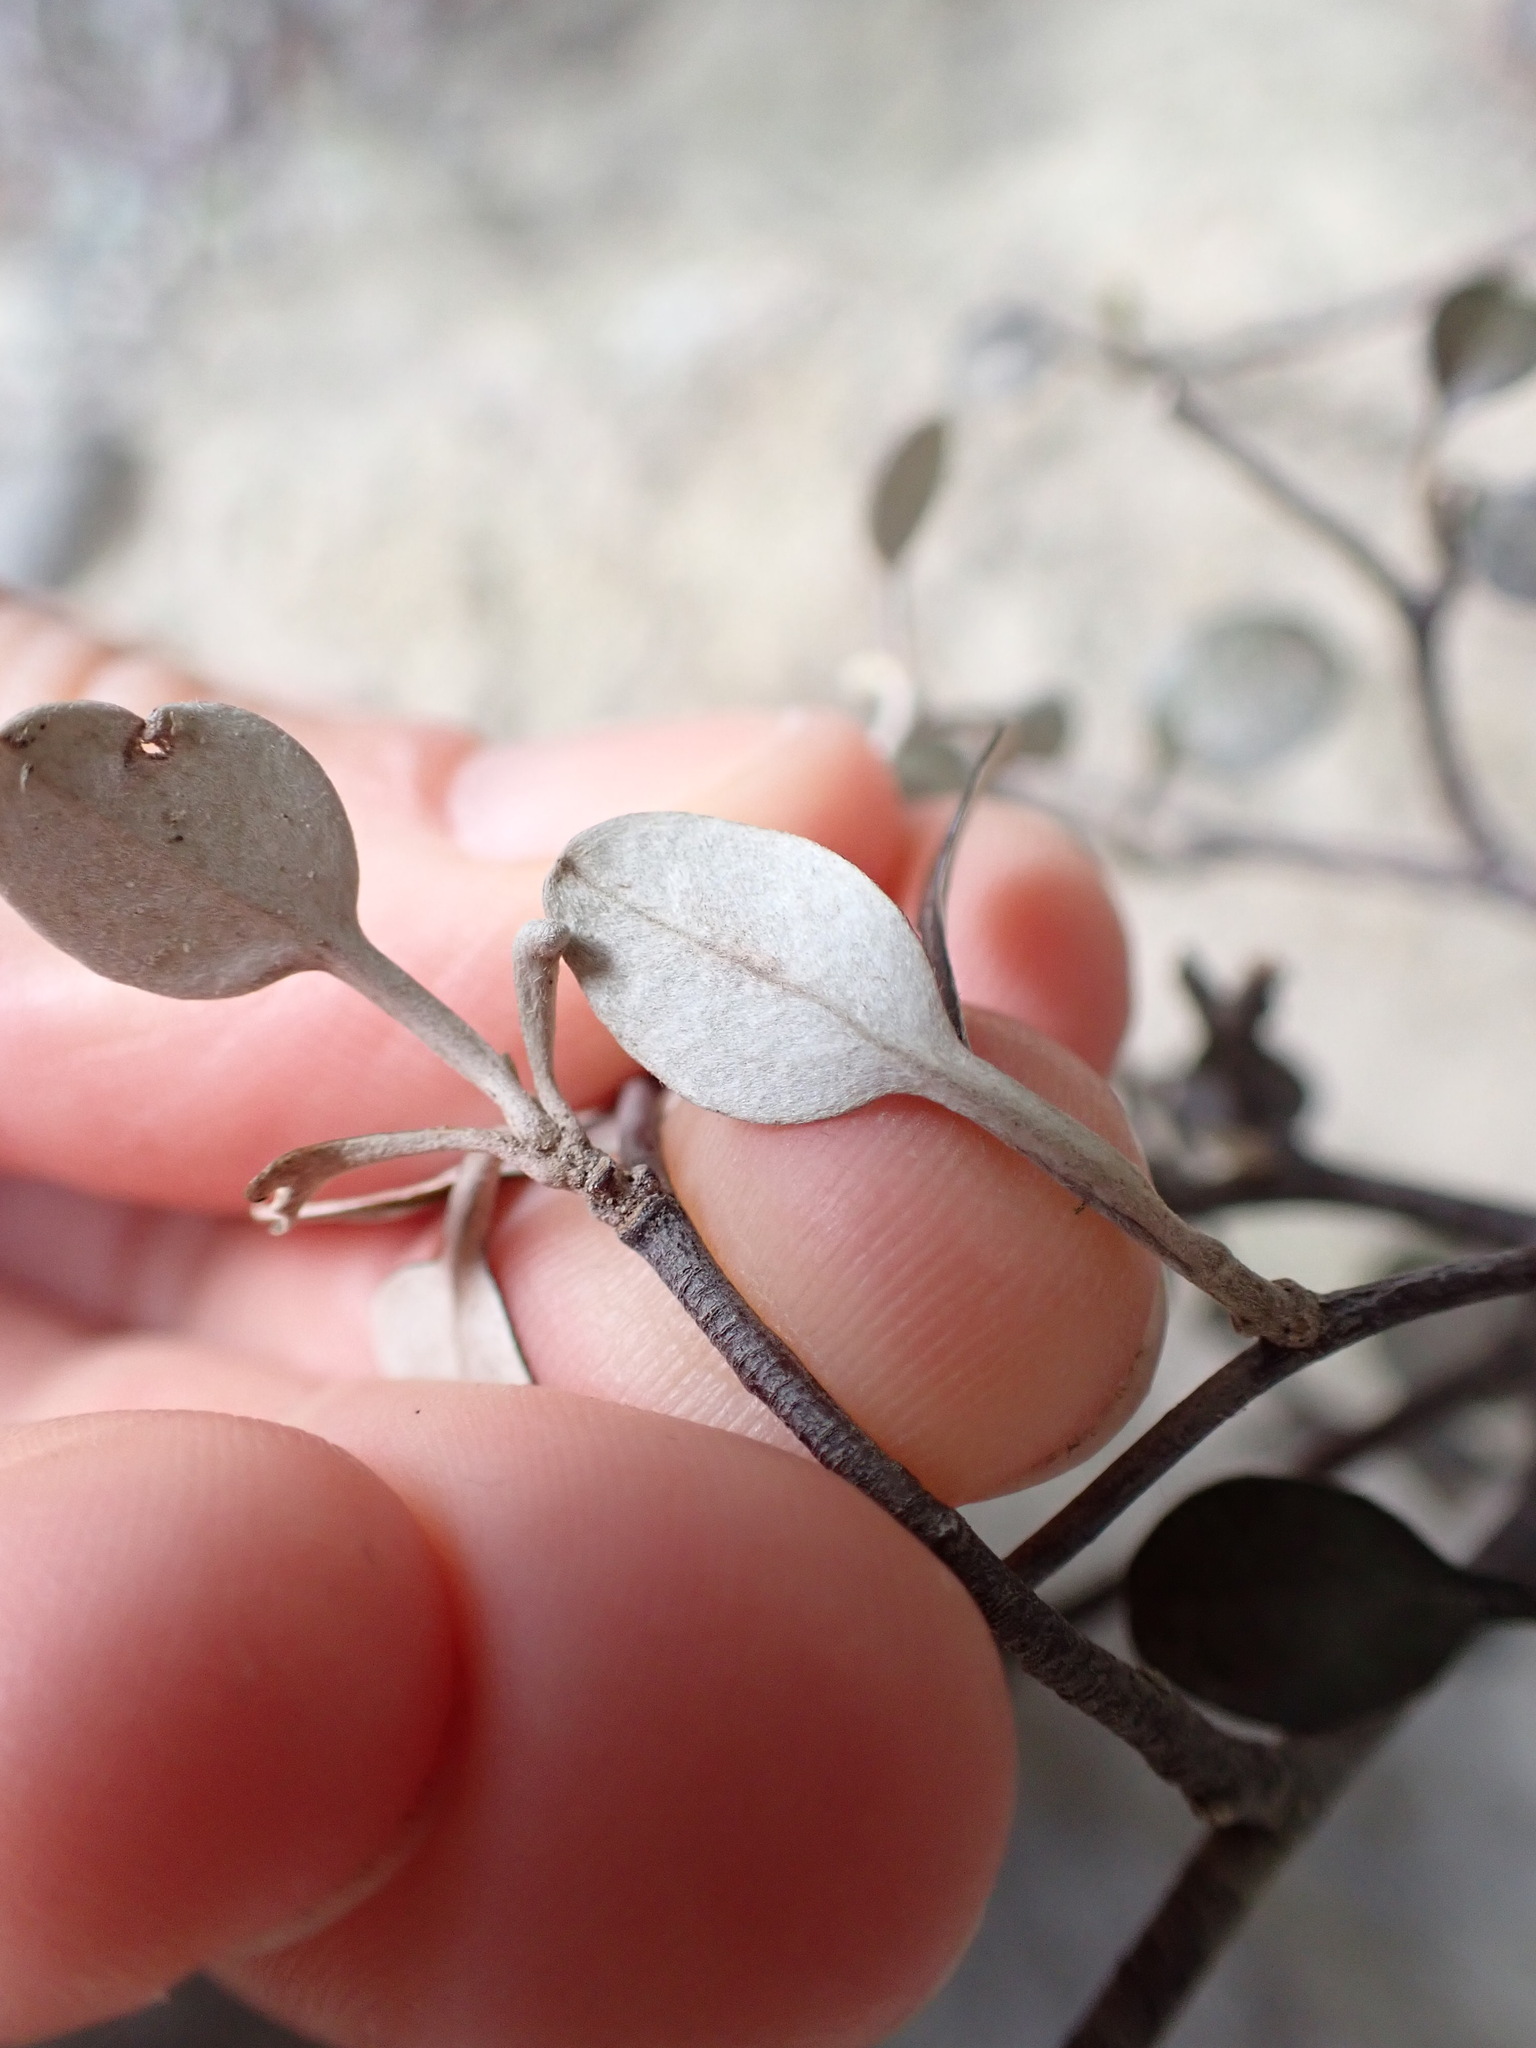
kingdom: Plantae
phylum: Tracheophyta
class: Magnoliopsida
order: Asterales
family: Argophyllaceae
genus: Corokia
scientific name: Corokia cotoneaster
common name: Wire nettingbush
